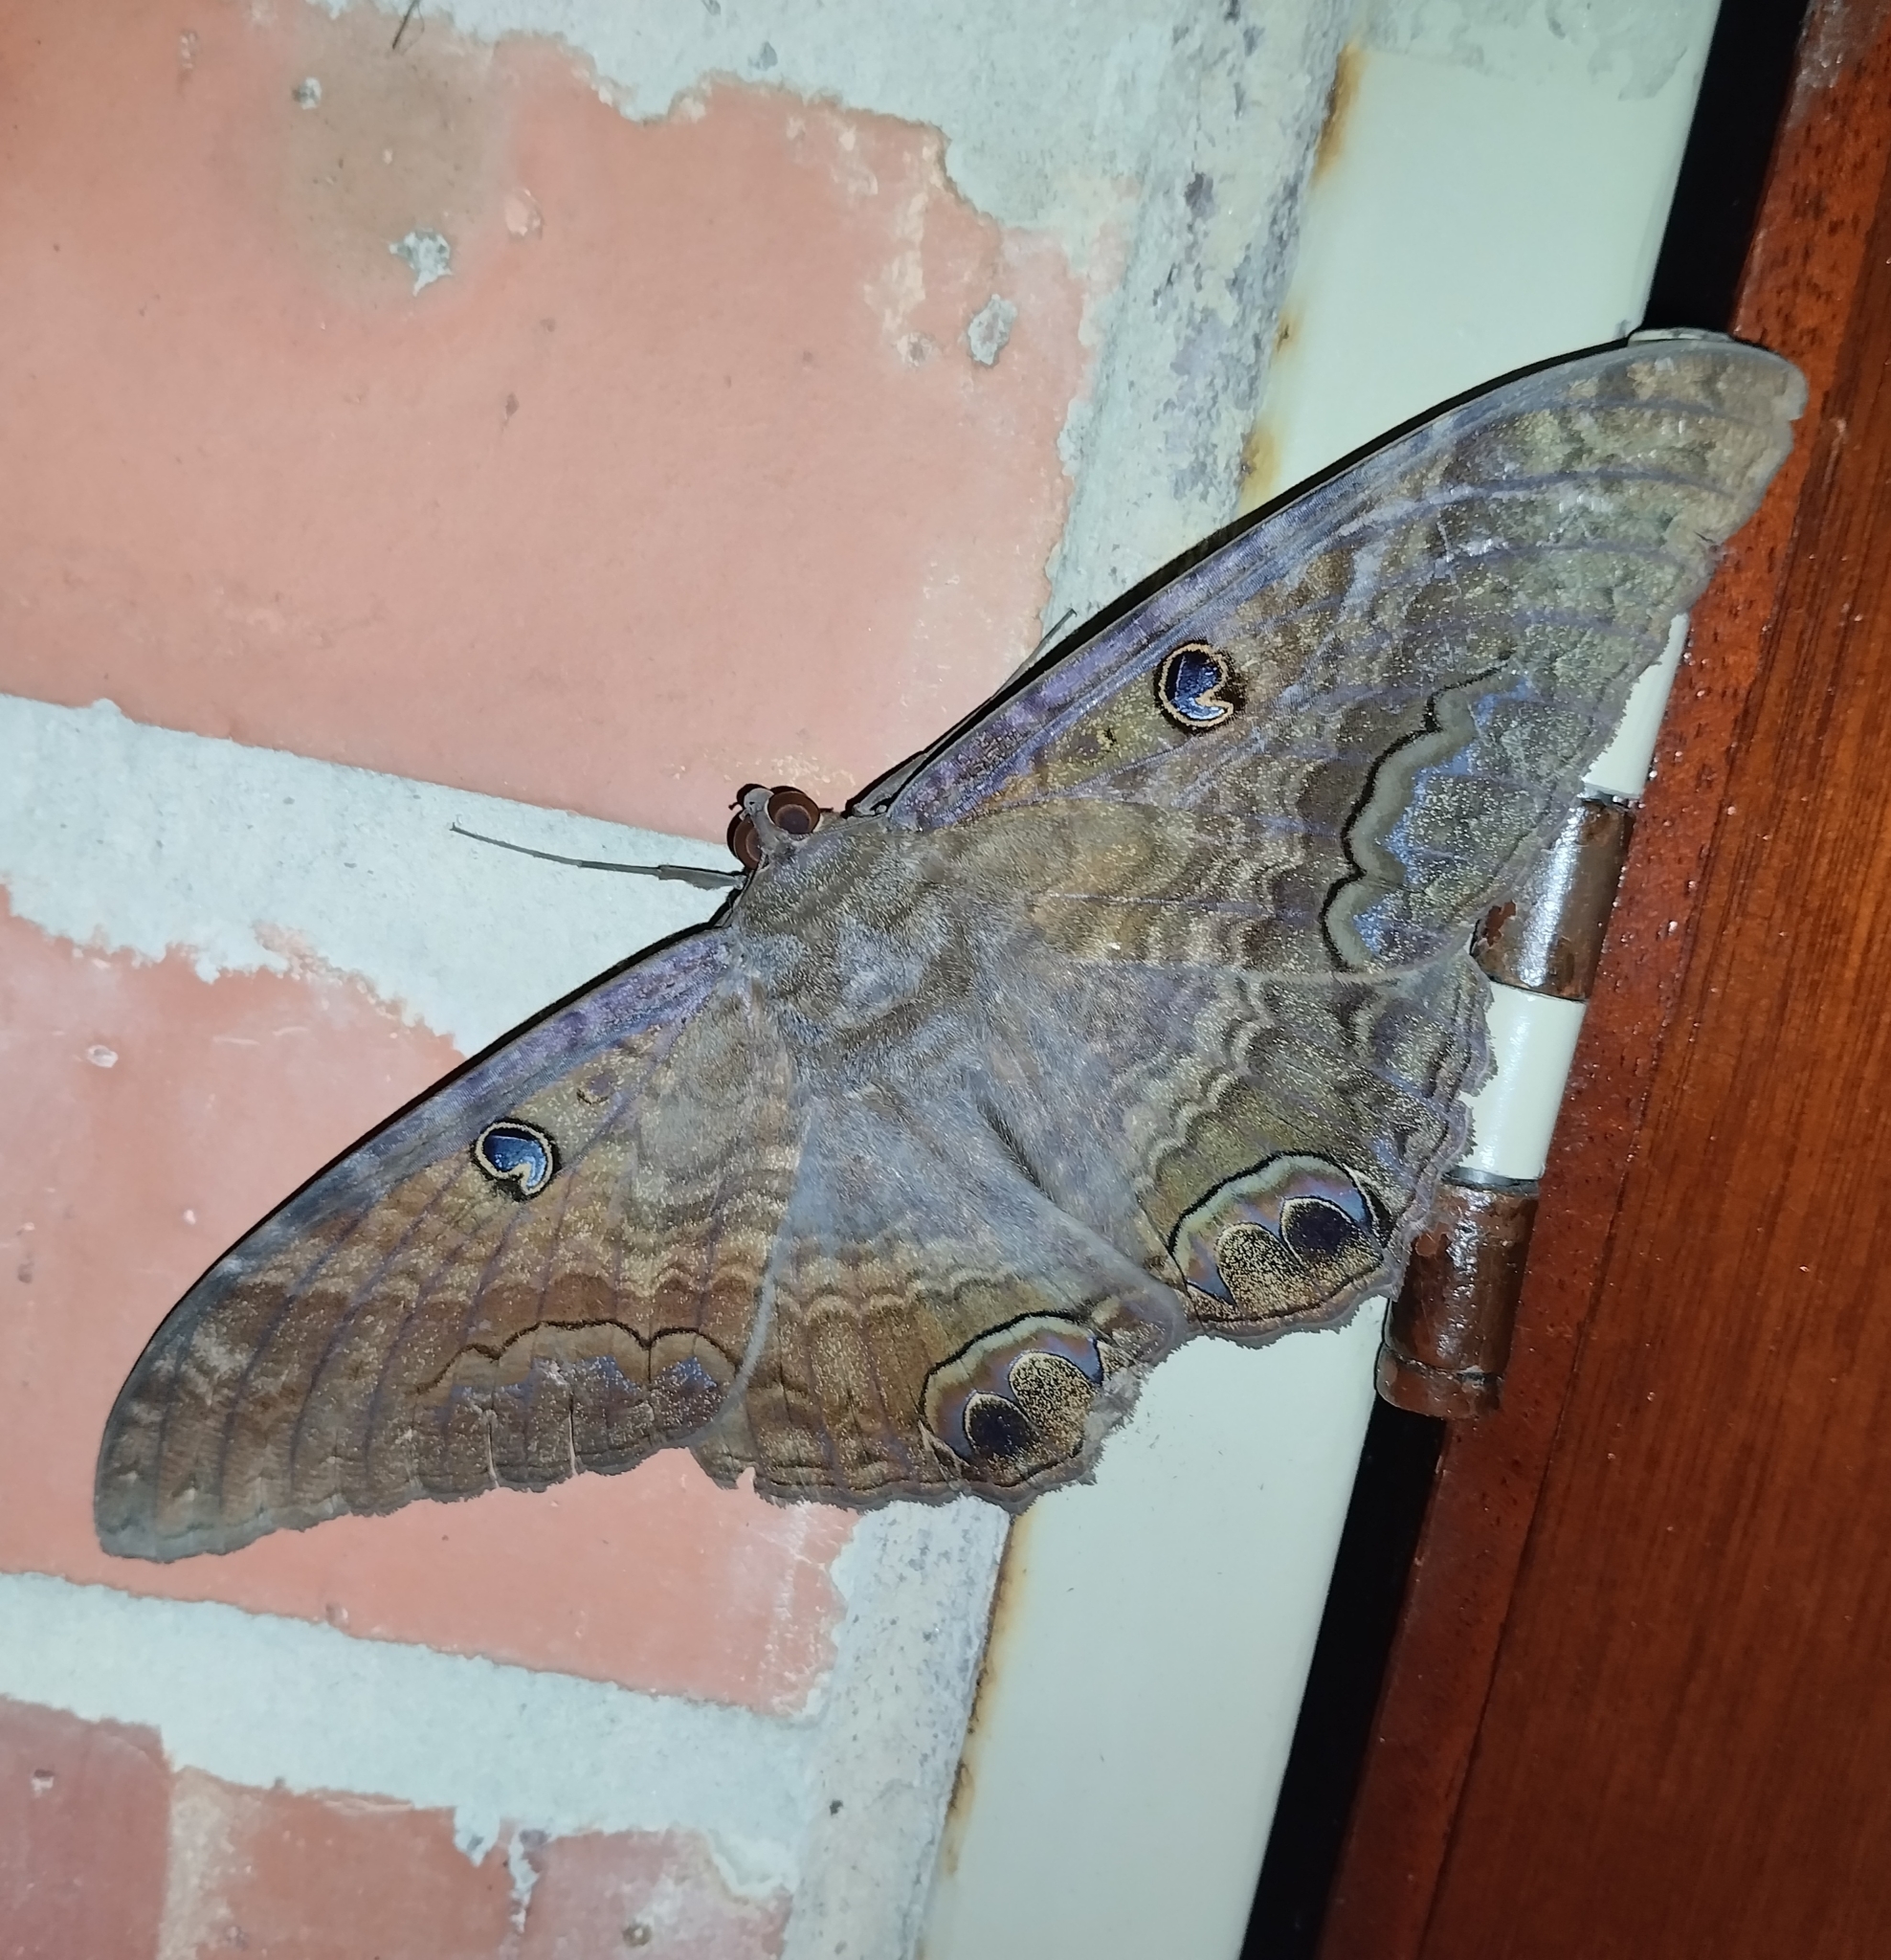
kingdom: Animalia
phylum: Arthropoda
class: Insecta
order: Lepidoptera
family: Erebidae
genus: Ascalapha
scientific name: Ascalapha odorata
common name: Black witch
